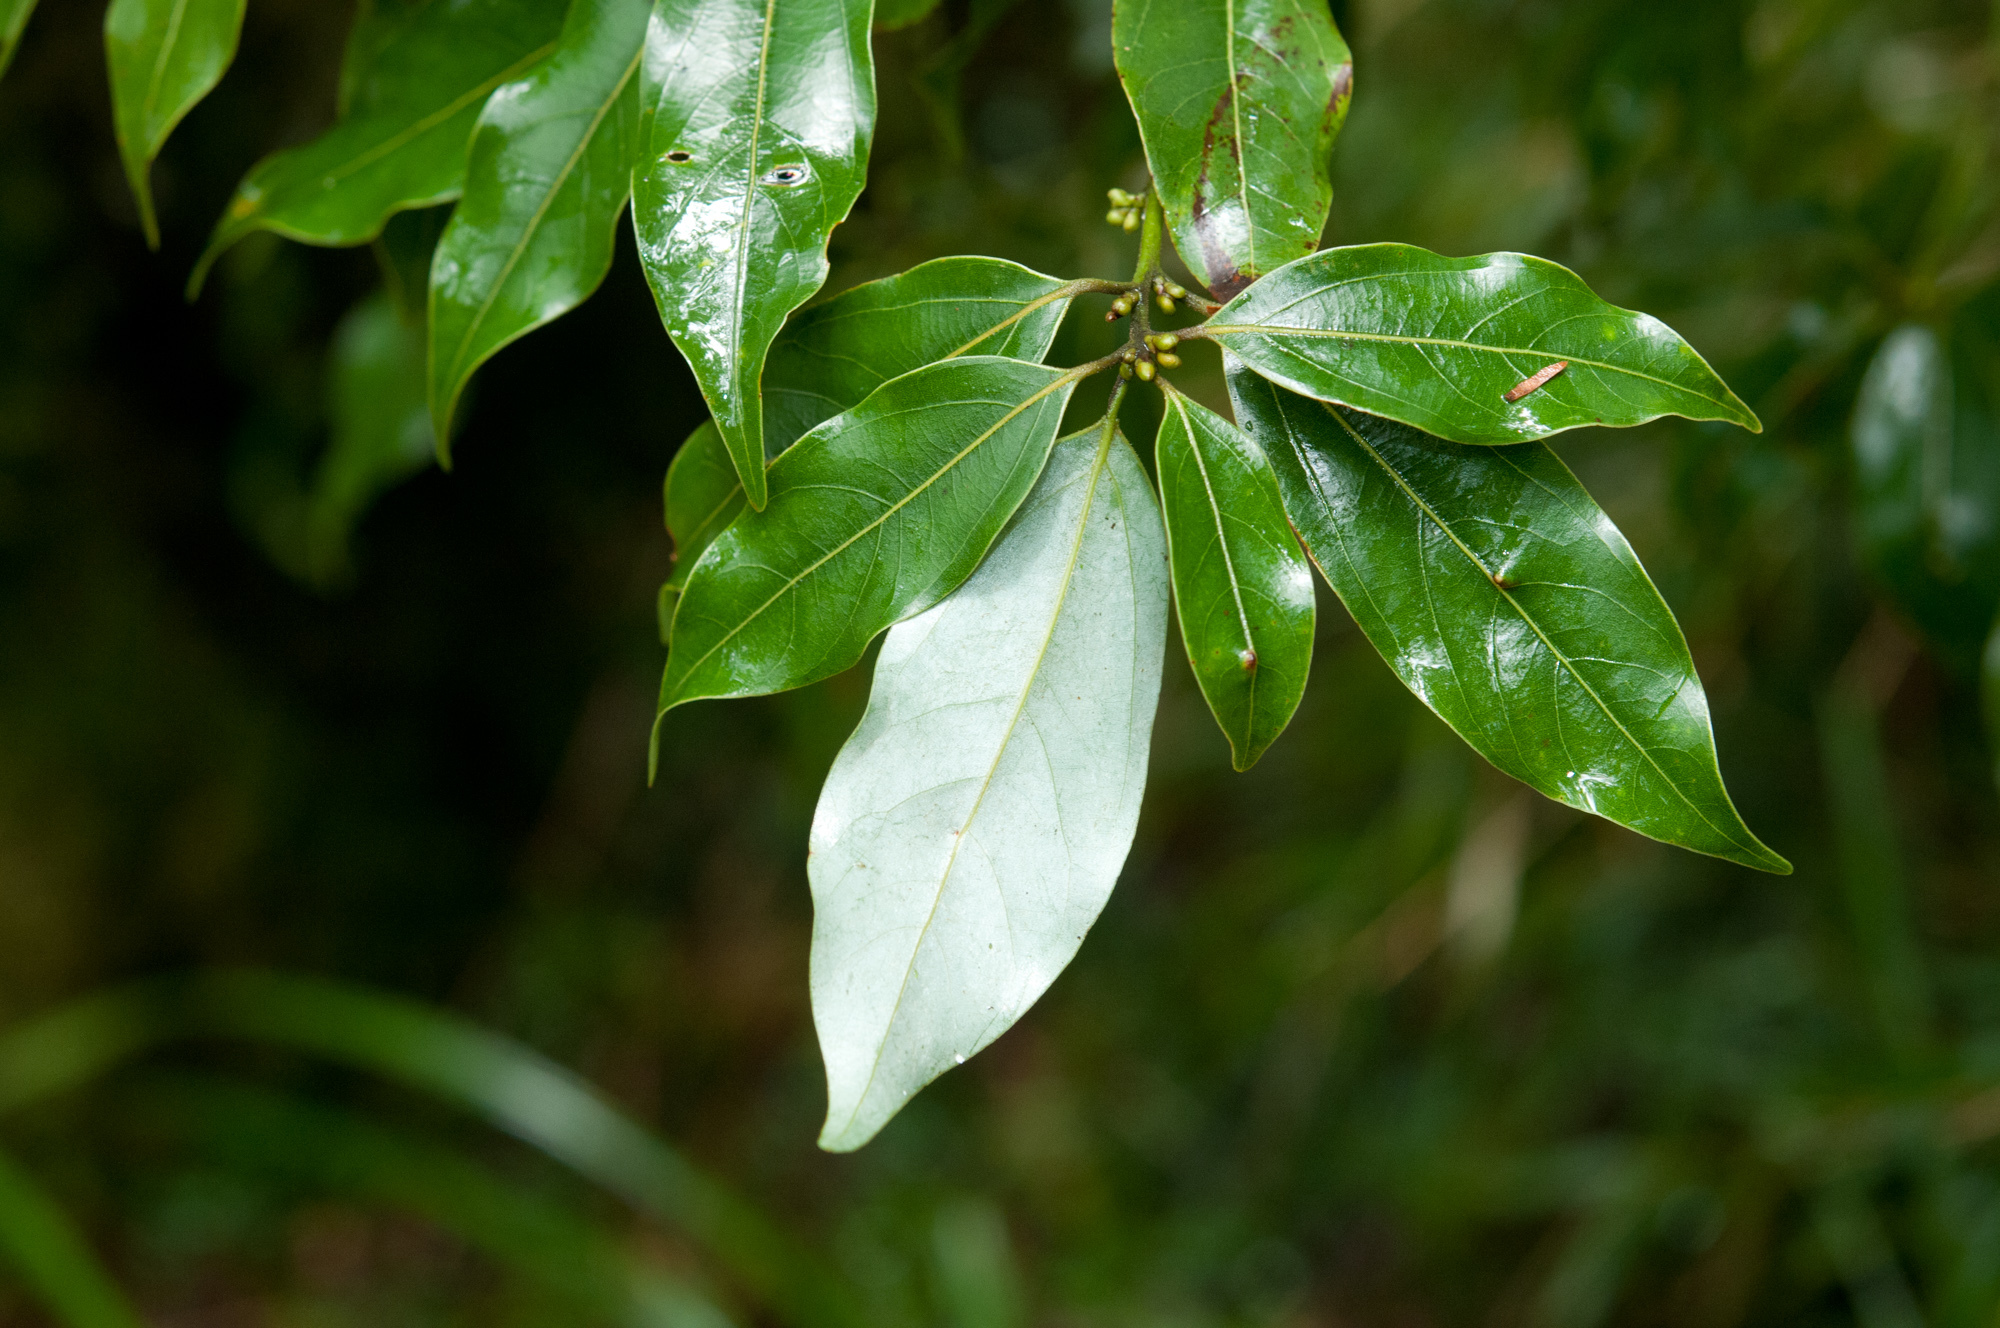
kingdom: Plantae
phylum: Tracheophyta
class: Magnoliopsida
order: Laurales
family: Lauraceae
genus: Neolitsea
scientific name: Neolitsea variabillima
